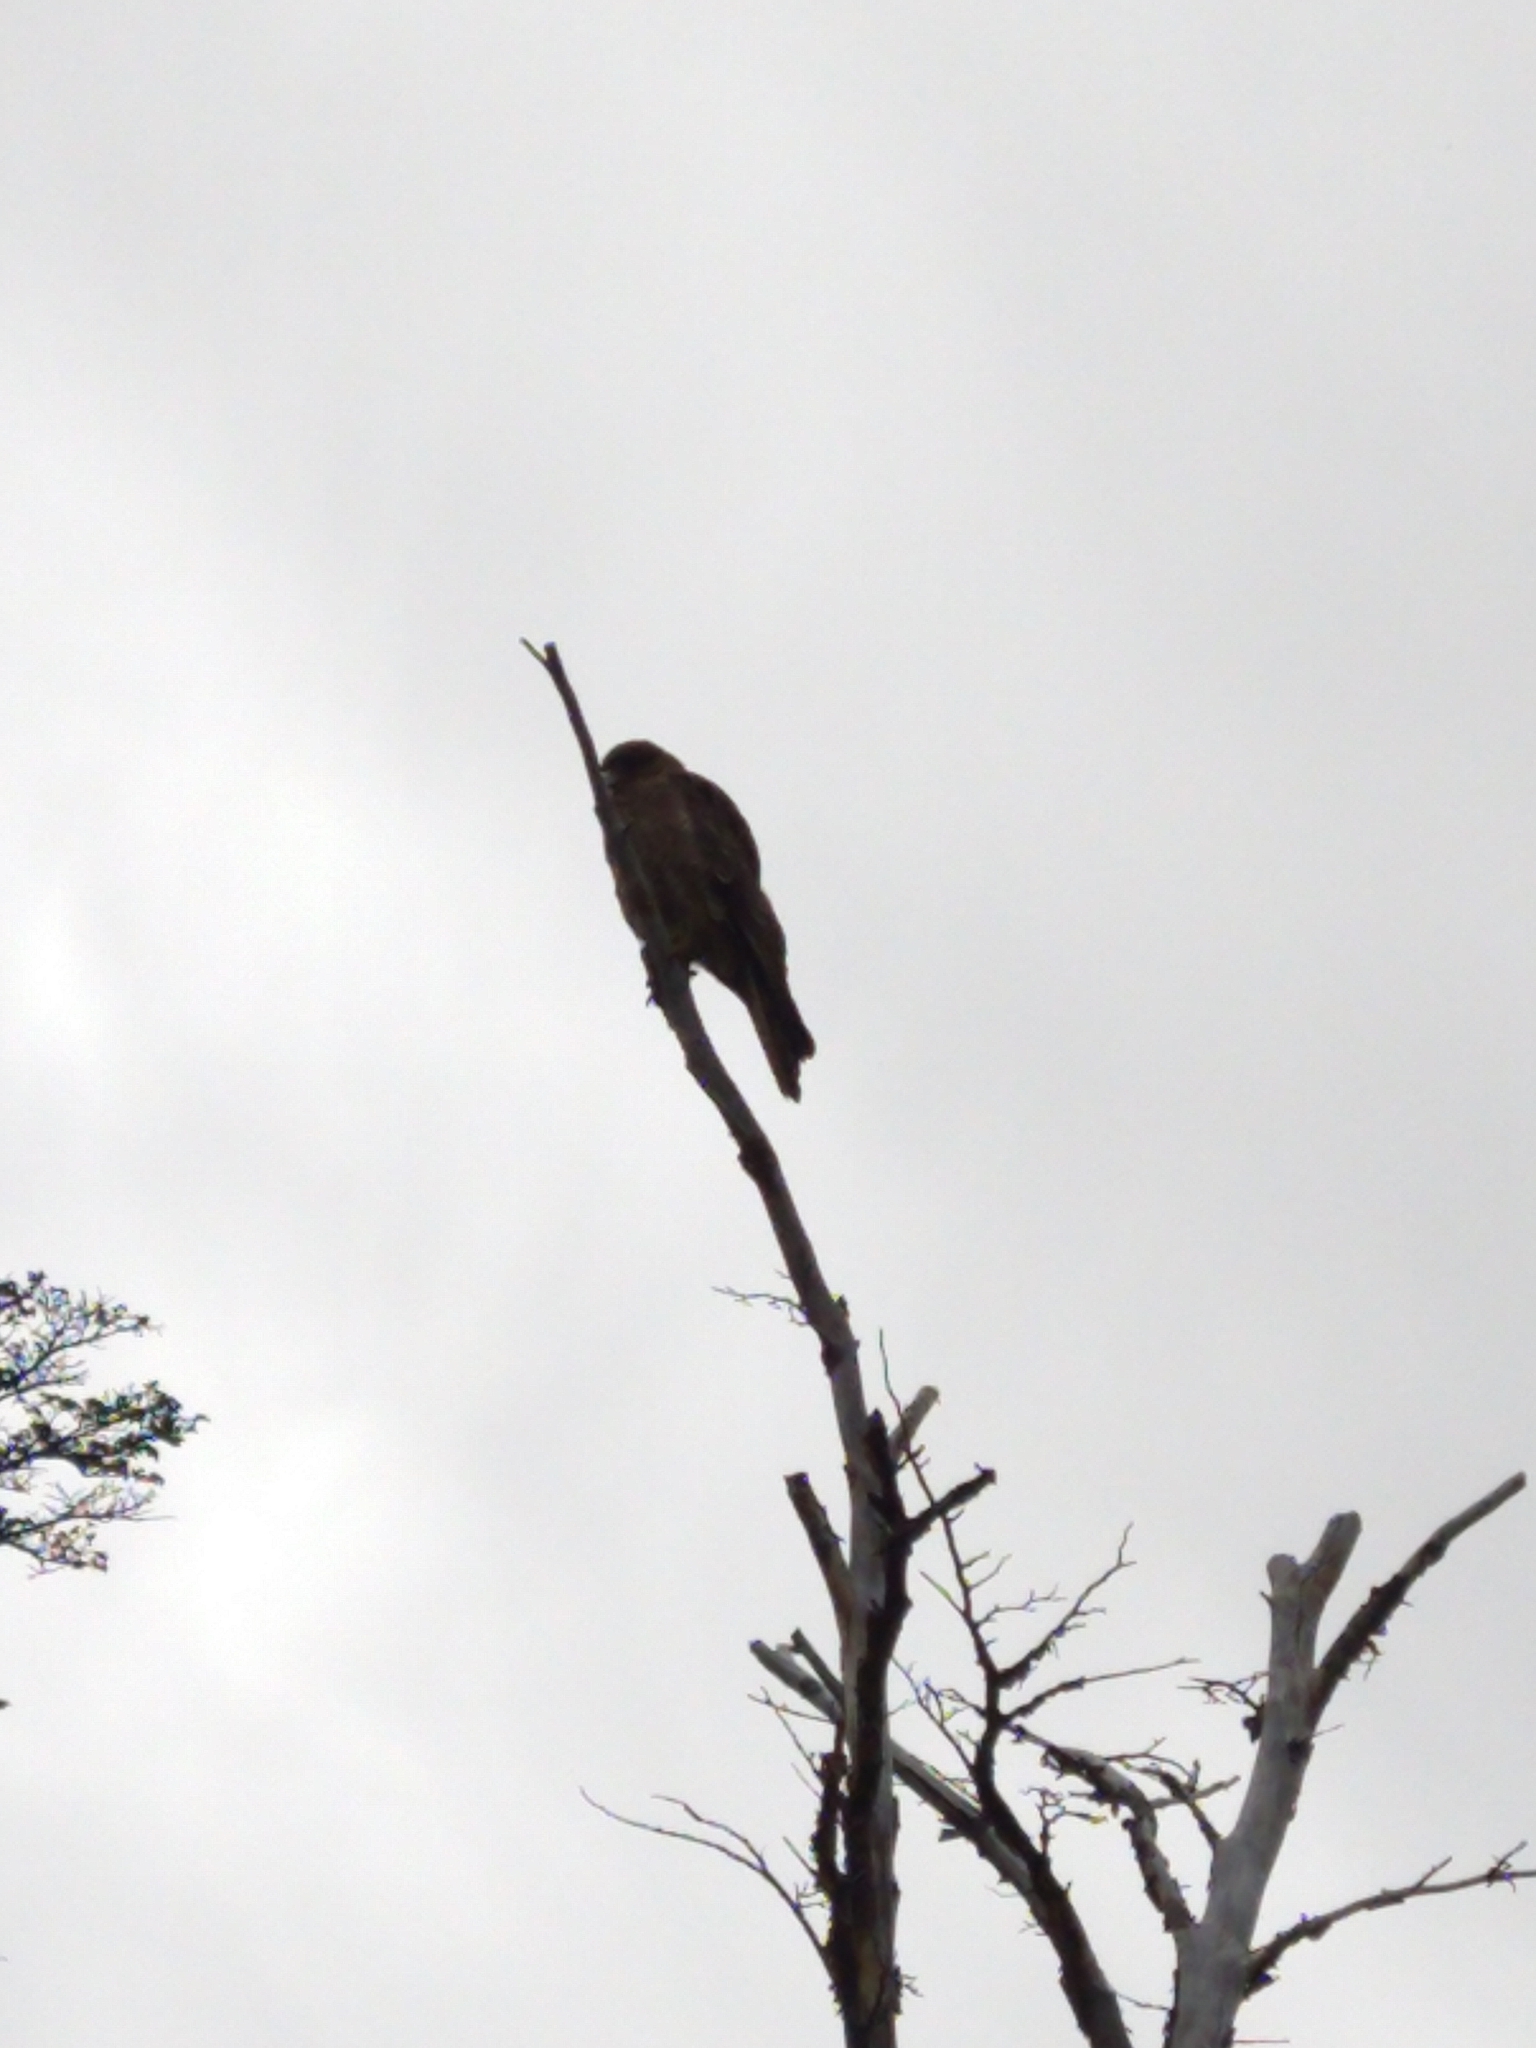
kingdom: Animalia
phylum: Chordata
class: Aves
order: Falconiformes
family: Falconidae
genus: Daptrius
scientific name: Daptrius
